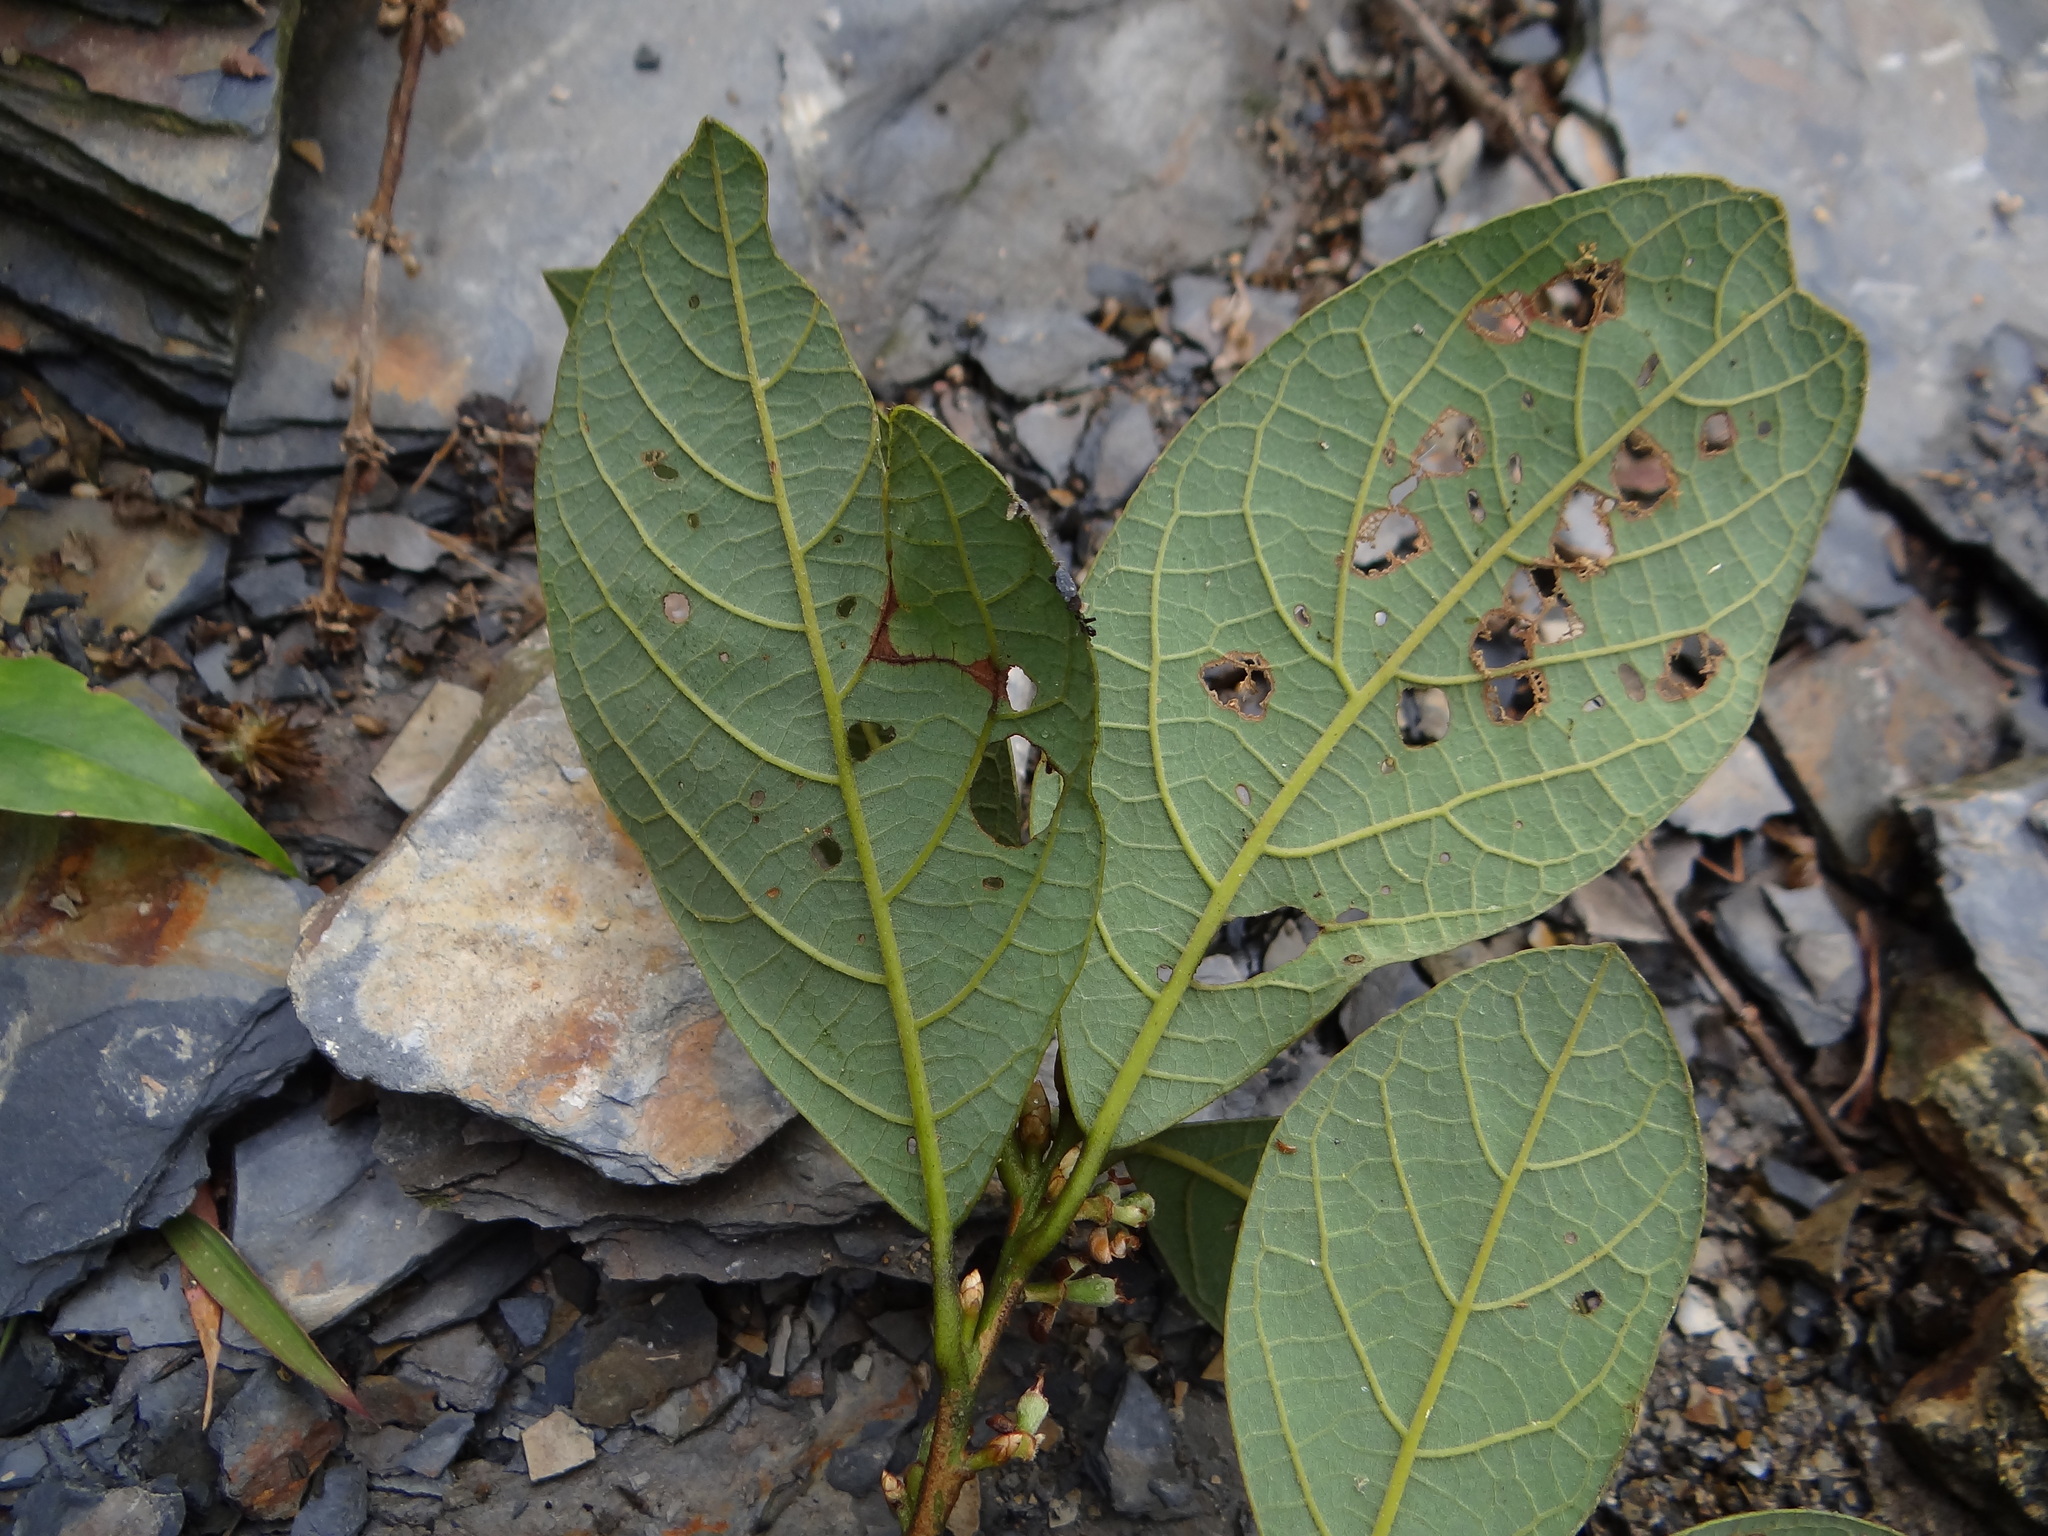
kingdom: Plantae
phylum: Tracheophyta
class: Magnoliopsida
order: Laurales
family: Lauraceae
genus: Litsea
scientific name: Litsea akoensis
